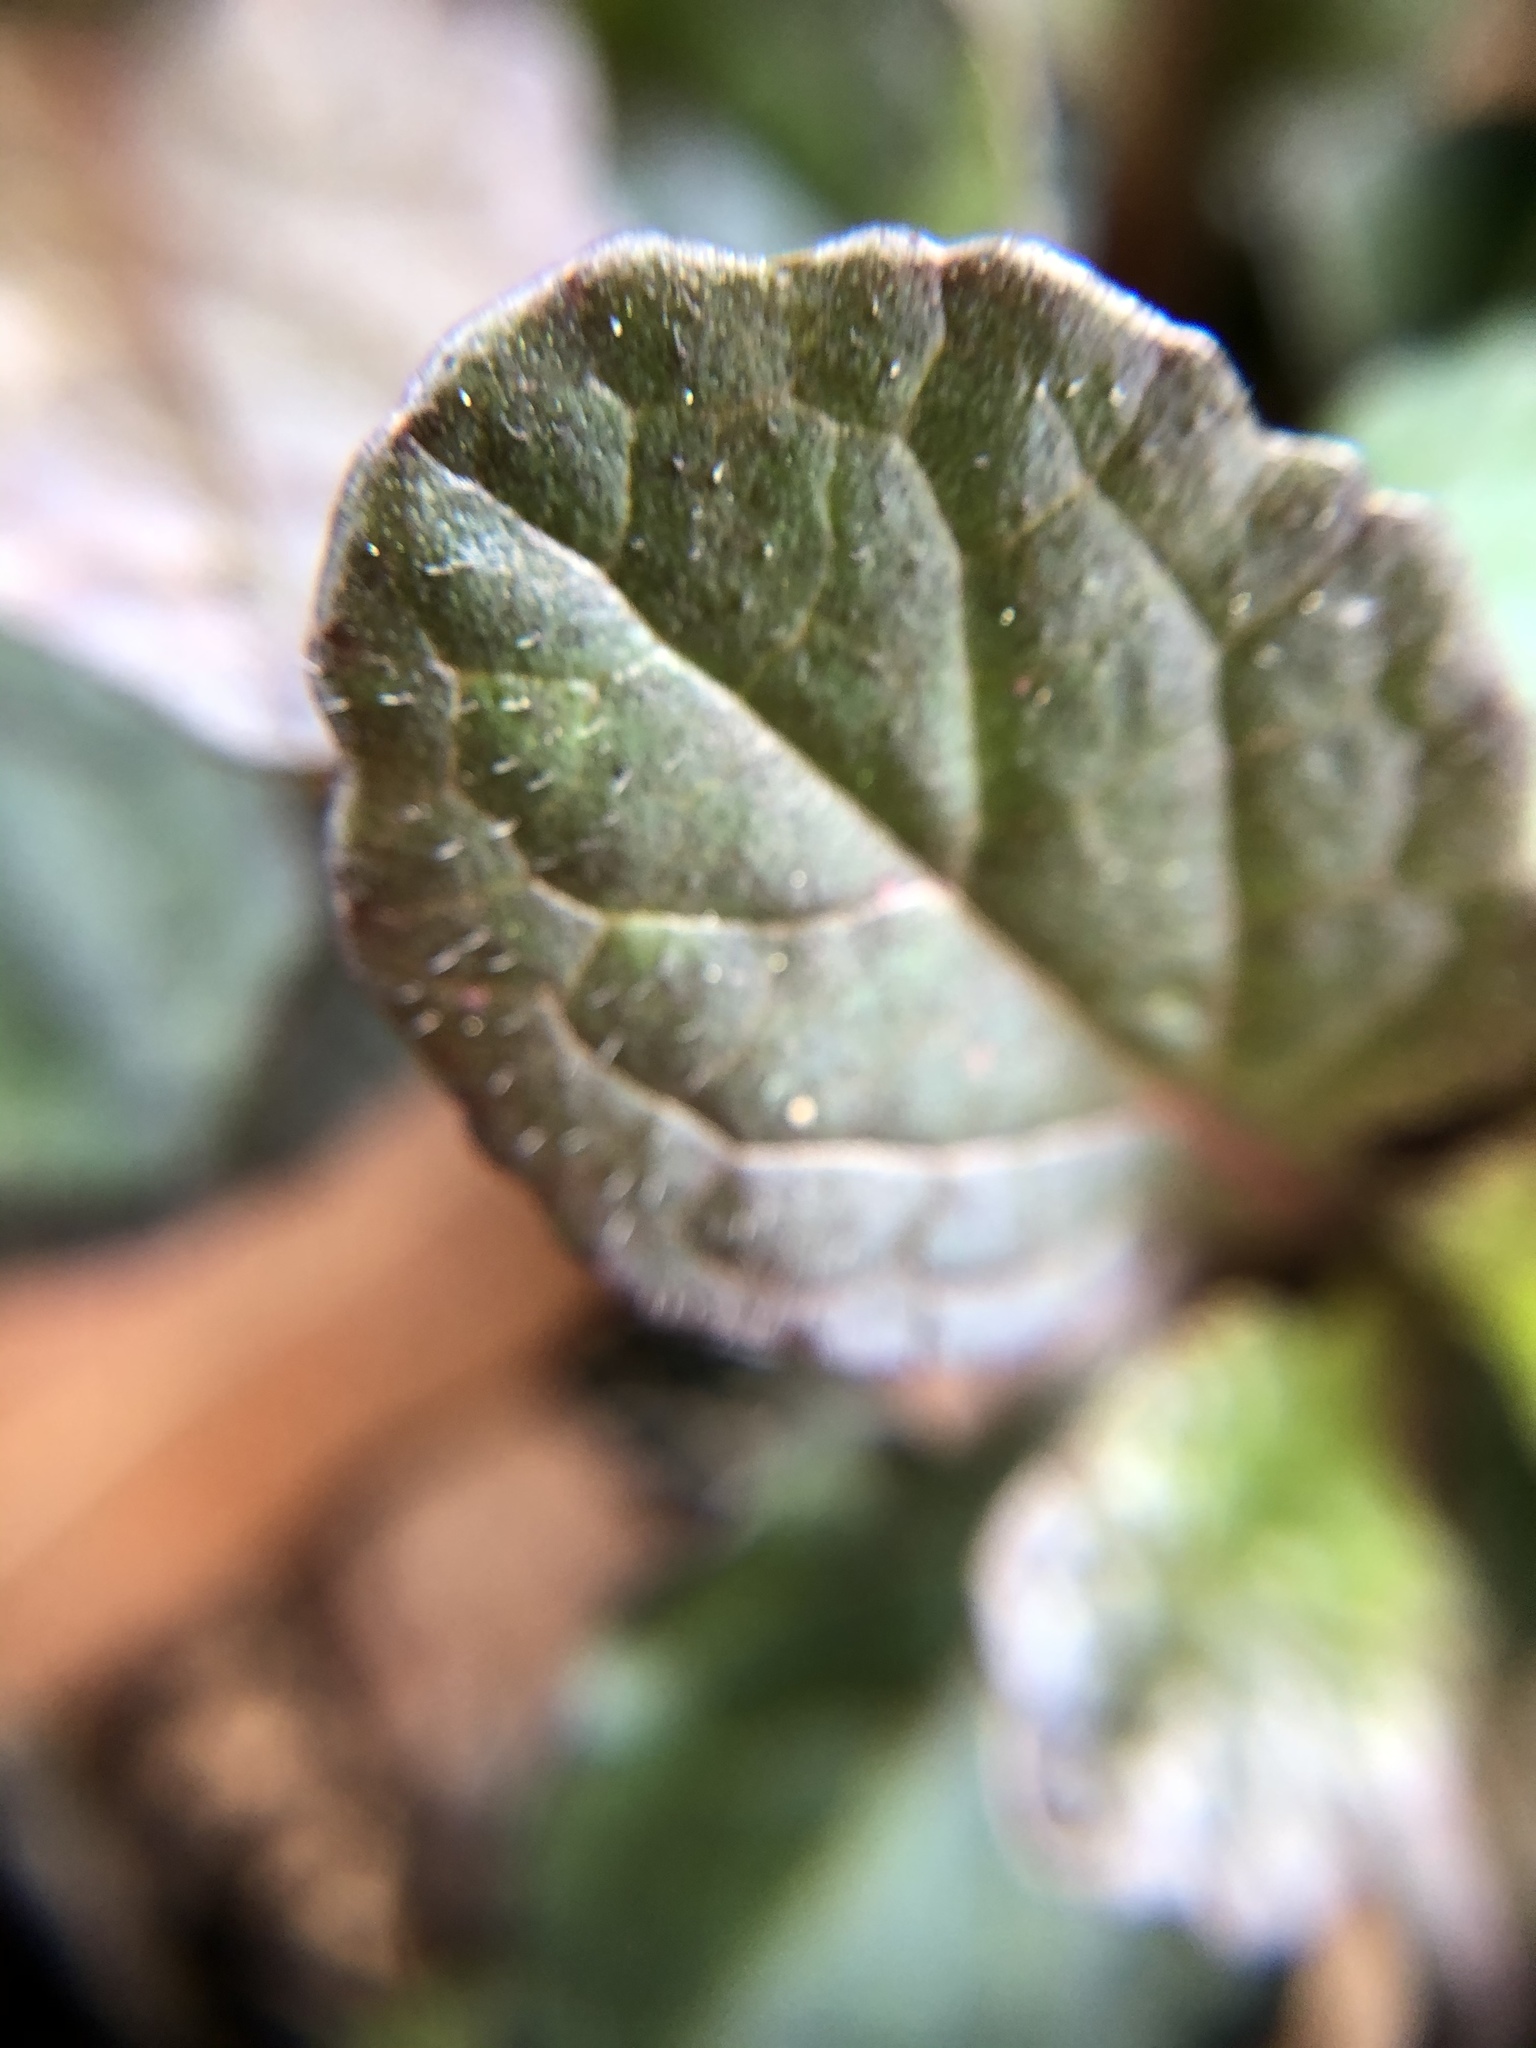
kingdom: Plantae
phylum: Tracheophyta
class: Magnoliopsida
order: Lamiales
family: Lamiaceae
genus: Ajuga
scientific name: Ajuga reptans
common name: Bugle
